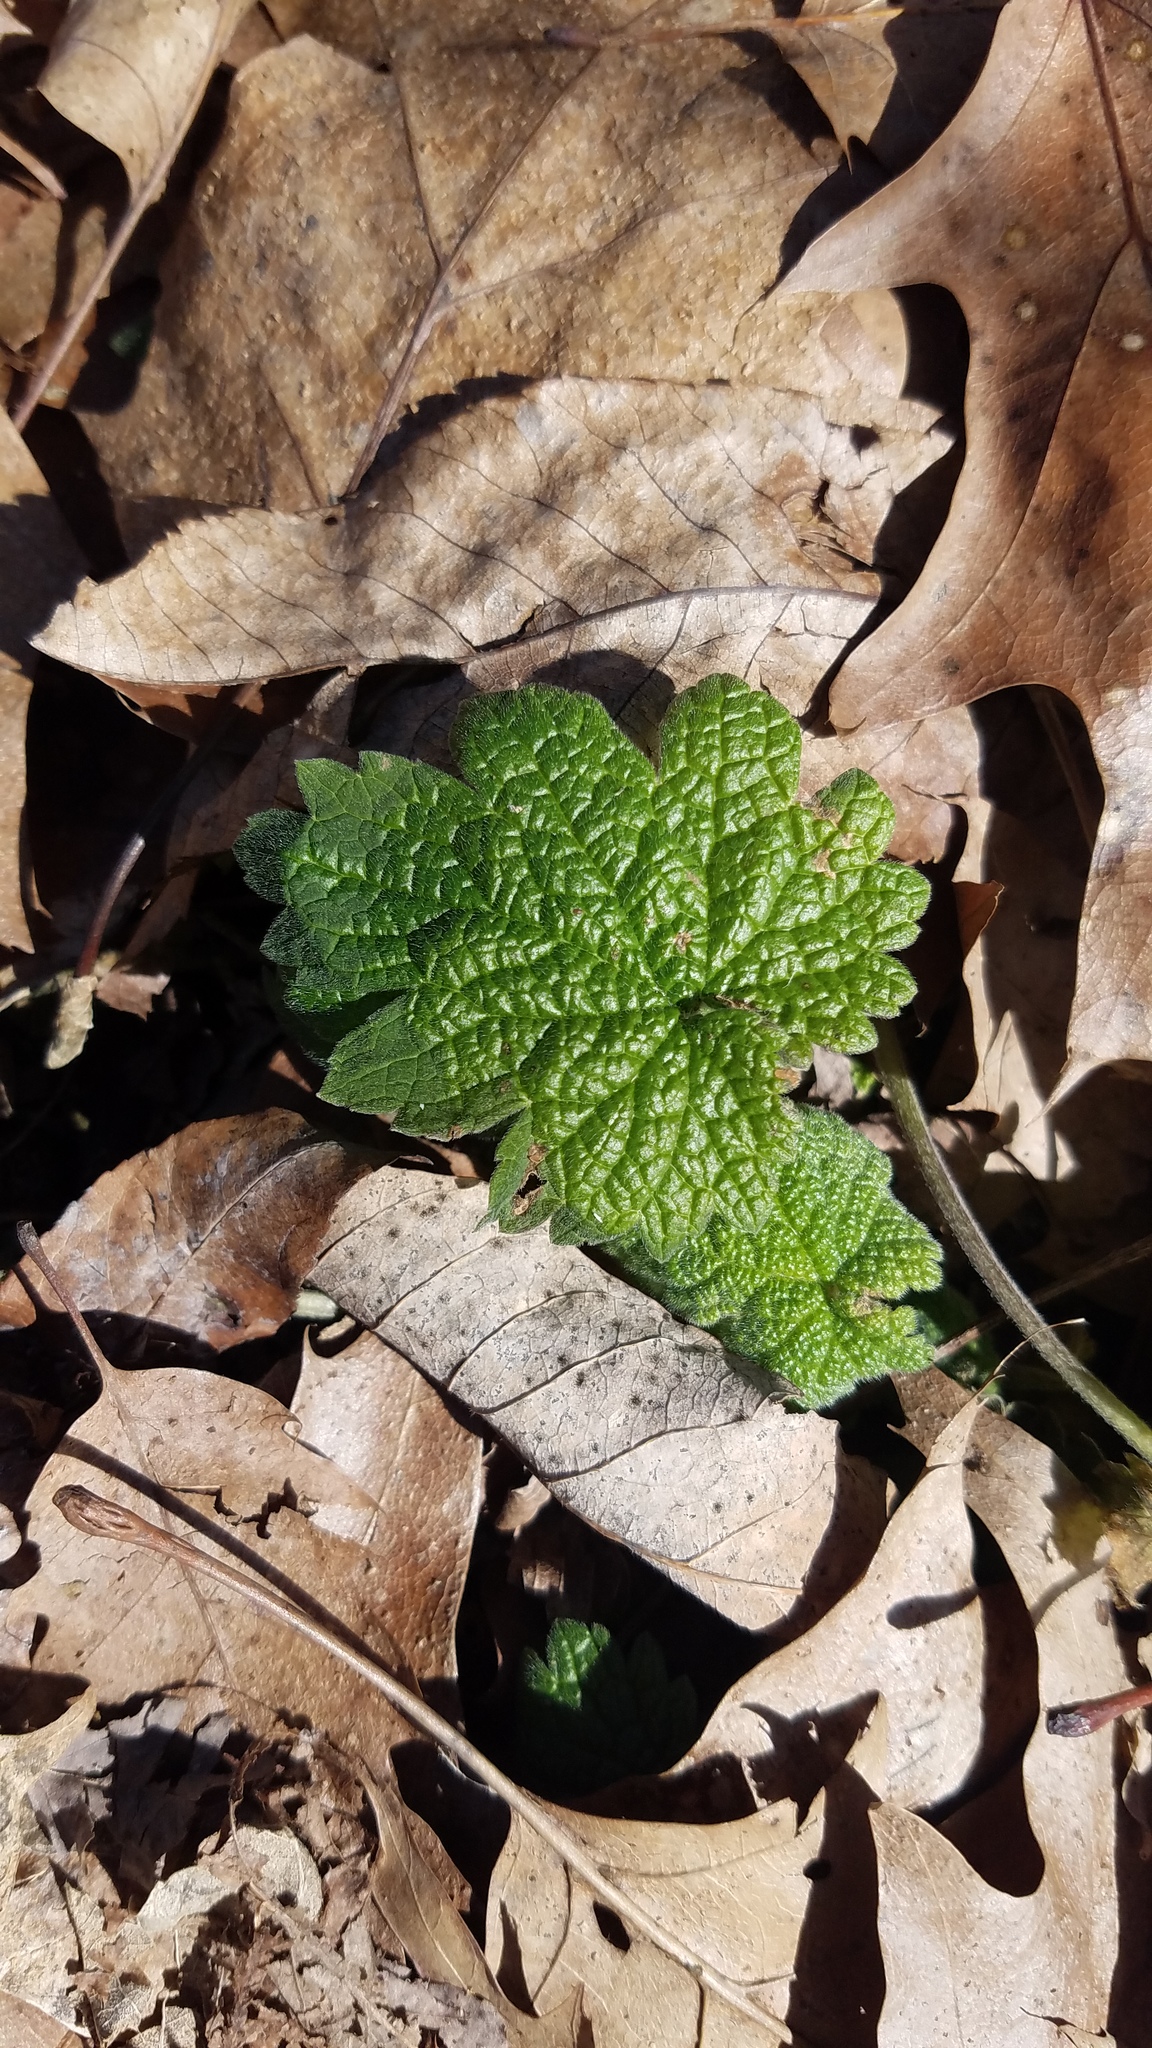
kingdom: Plantae
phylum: Tracheophyta
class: Magnoliopsida
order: Lamiales
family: Lamiaceae
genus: Leonurus
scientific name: Leonurus cardiaca
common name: Motherwort
